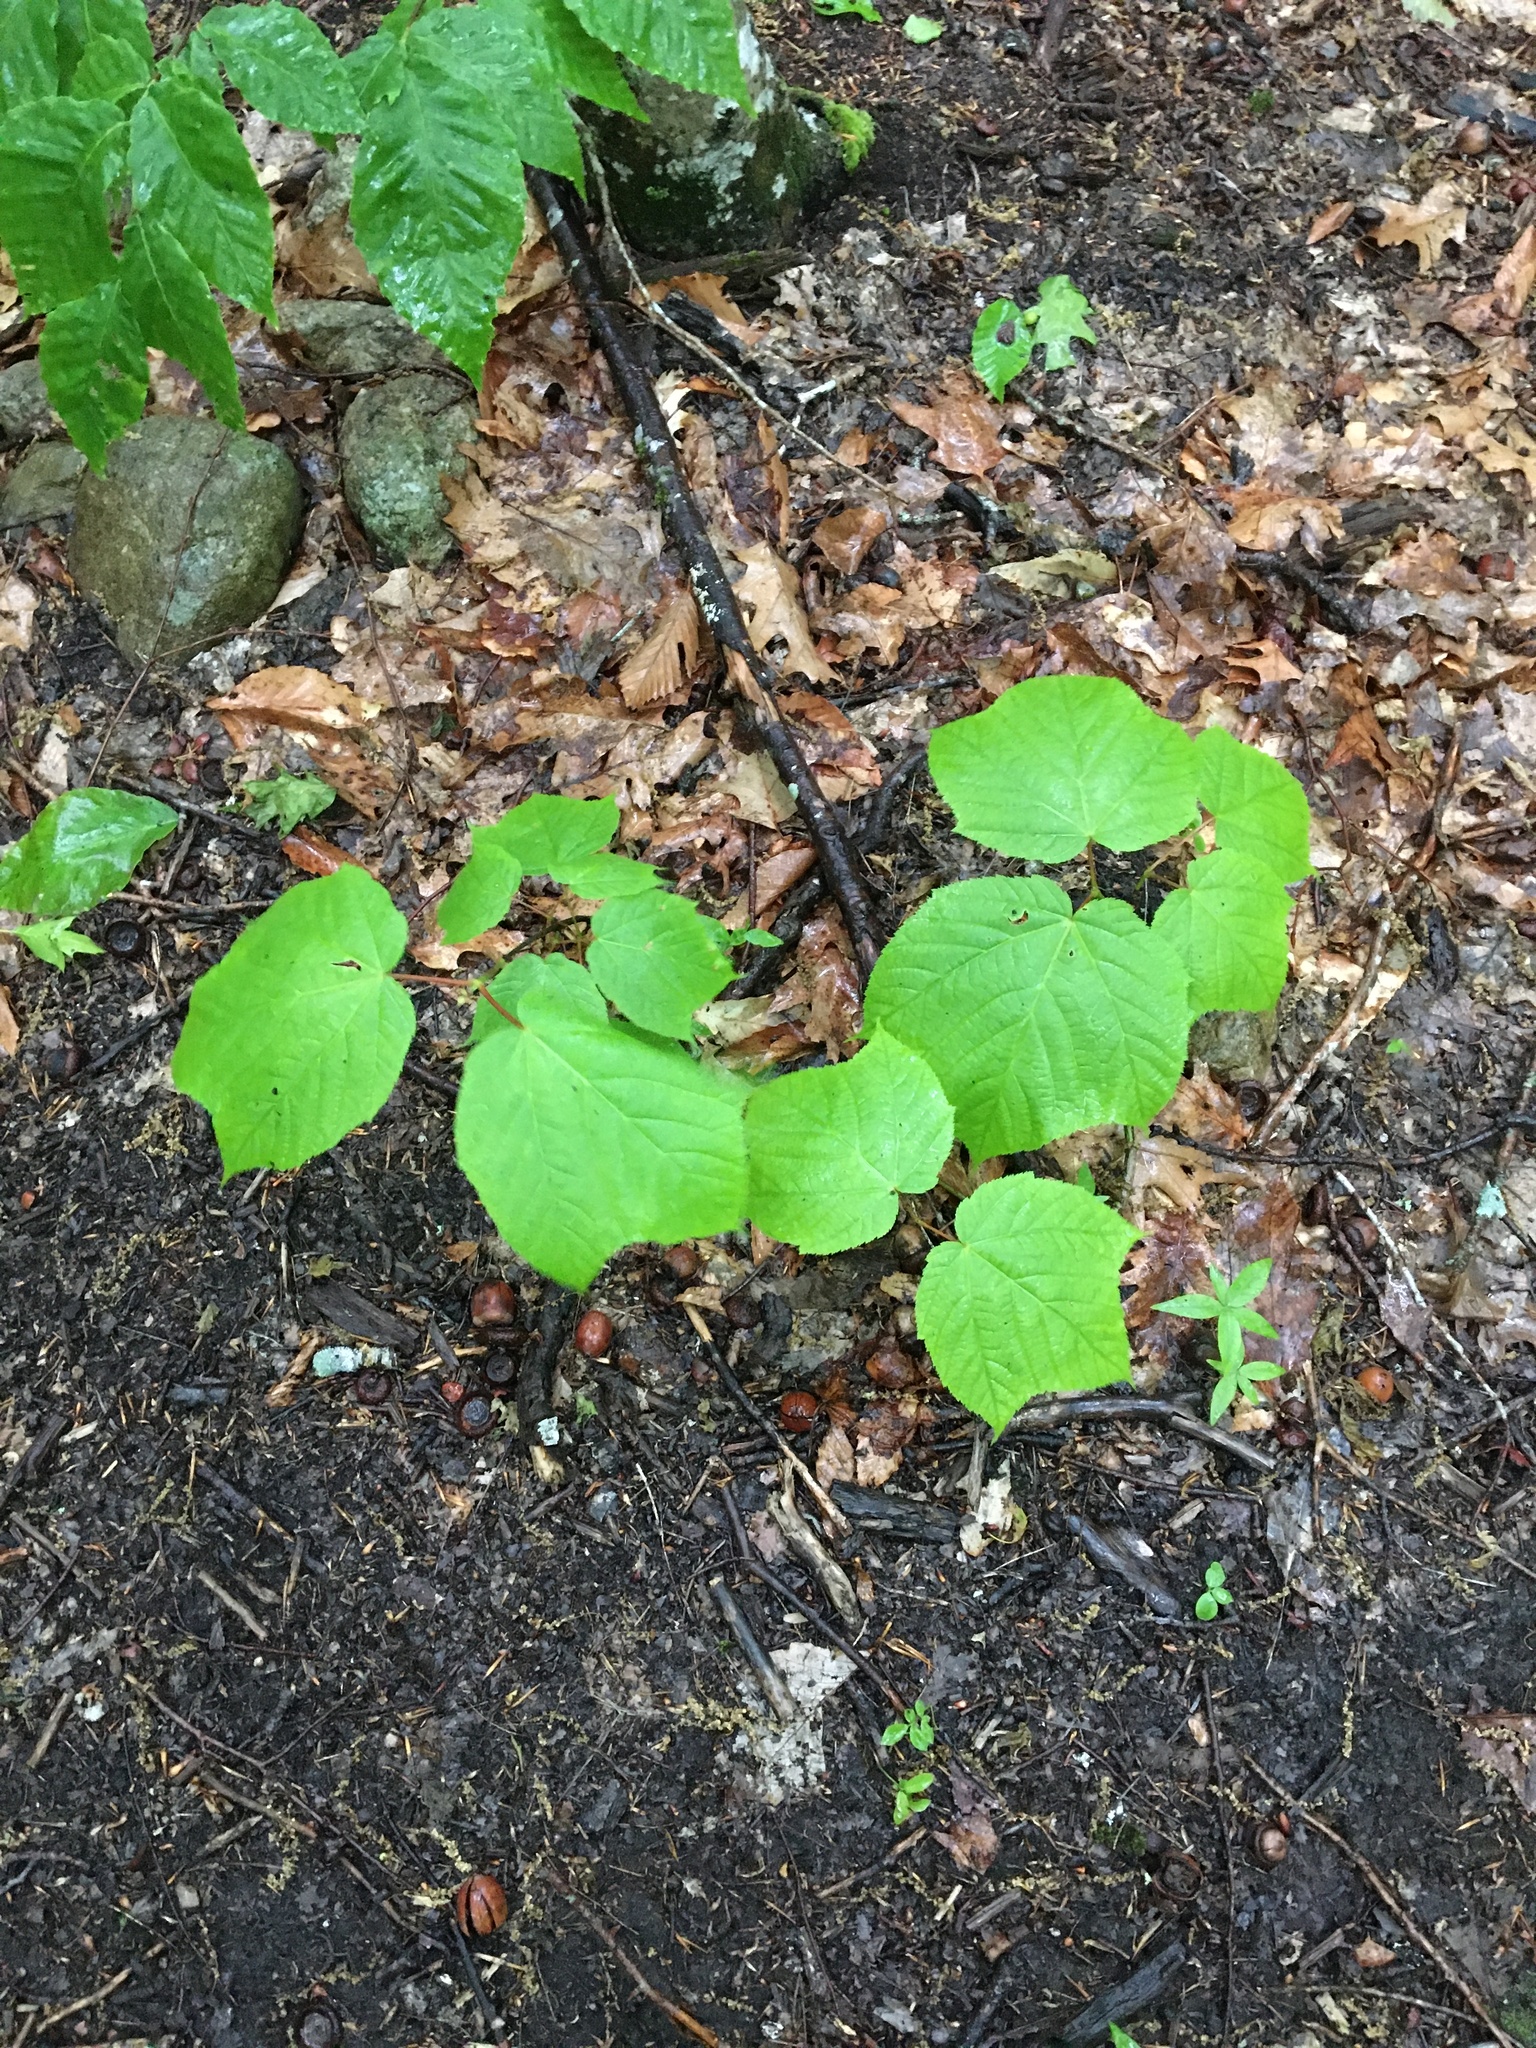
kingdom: Plantae
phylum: Tracheophyta
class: Magnoliopsida
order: Sapindales
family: Sapindaceae
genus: Acer
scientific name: Acer pensylvanicum
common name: Moosewood
